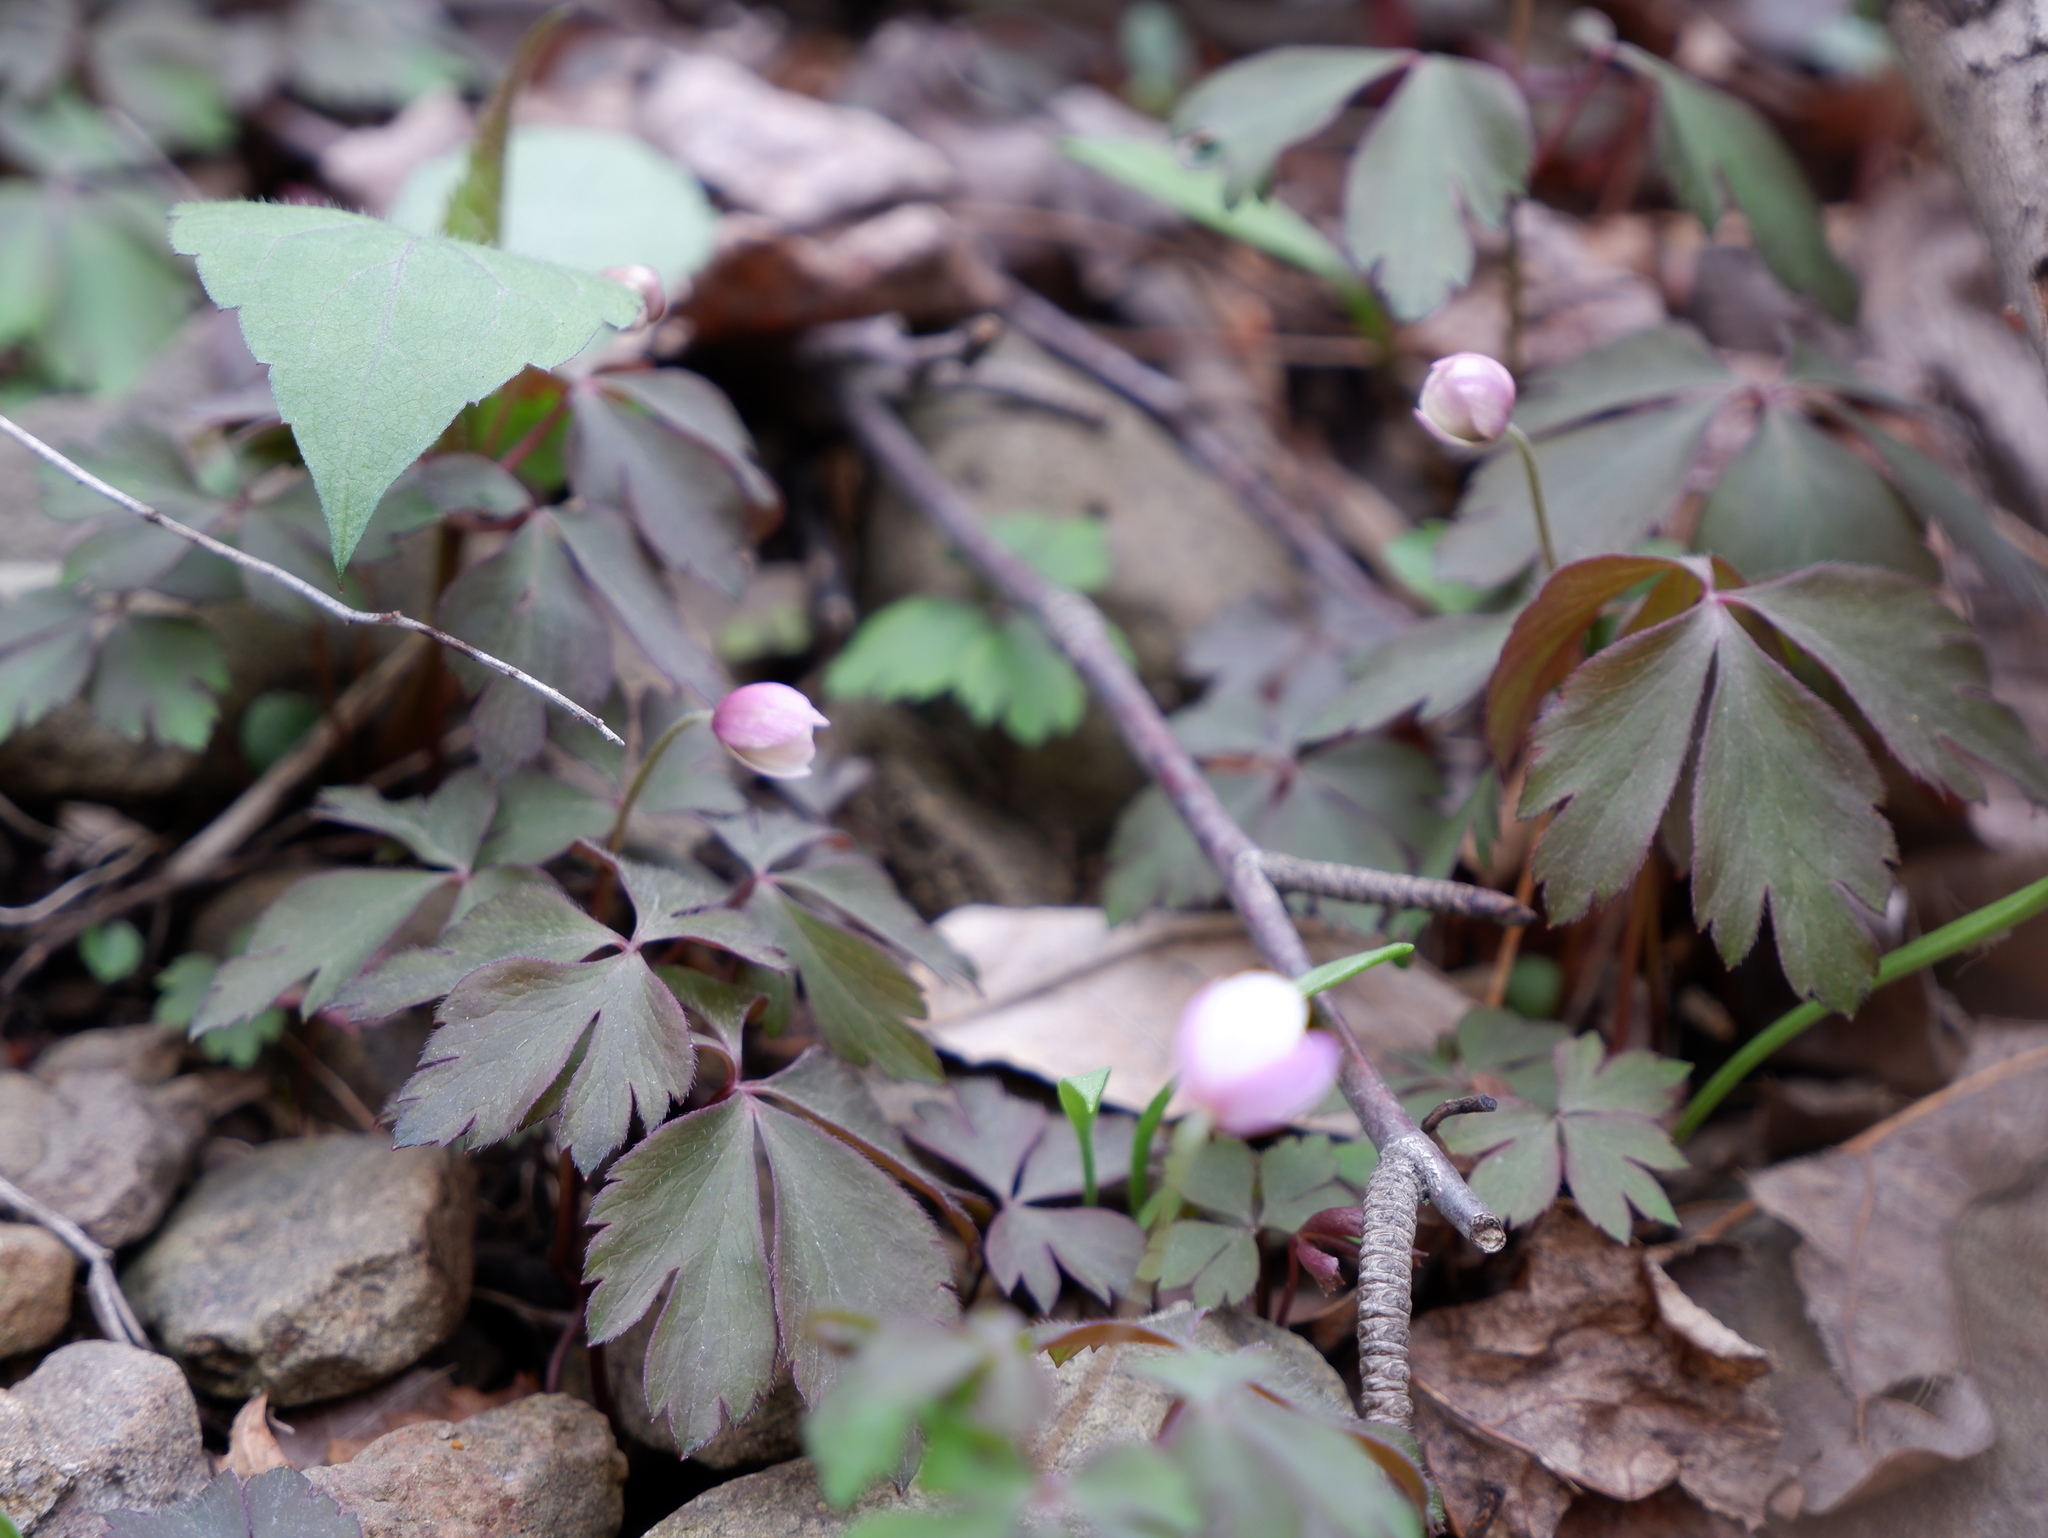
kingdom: Plantae
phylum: Tracheophyta
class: Magnoliopsida
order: Ranunculales
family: Ranunculaceae
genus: Anemone
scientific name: Anemone quinquefolia
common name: Wood anemone
